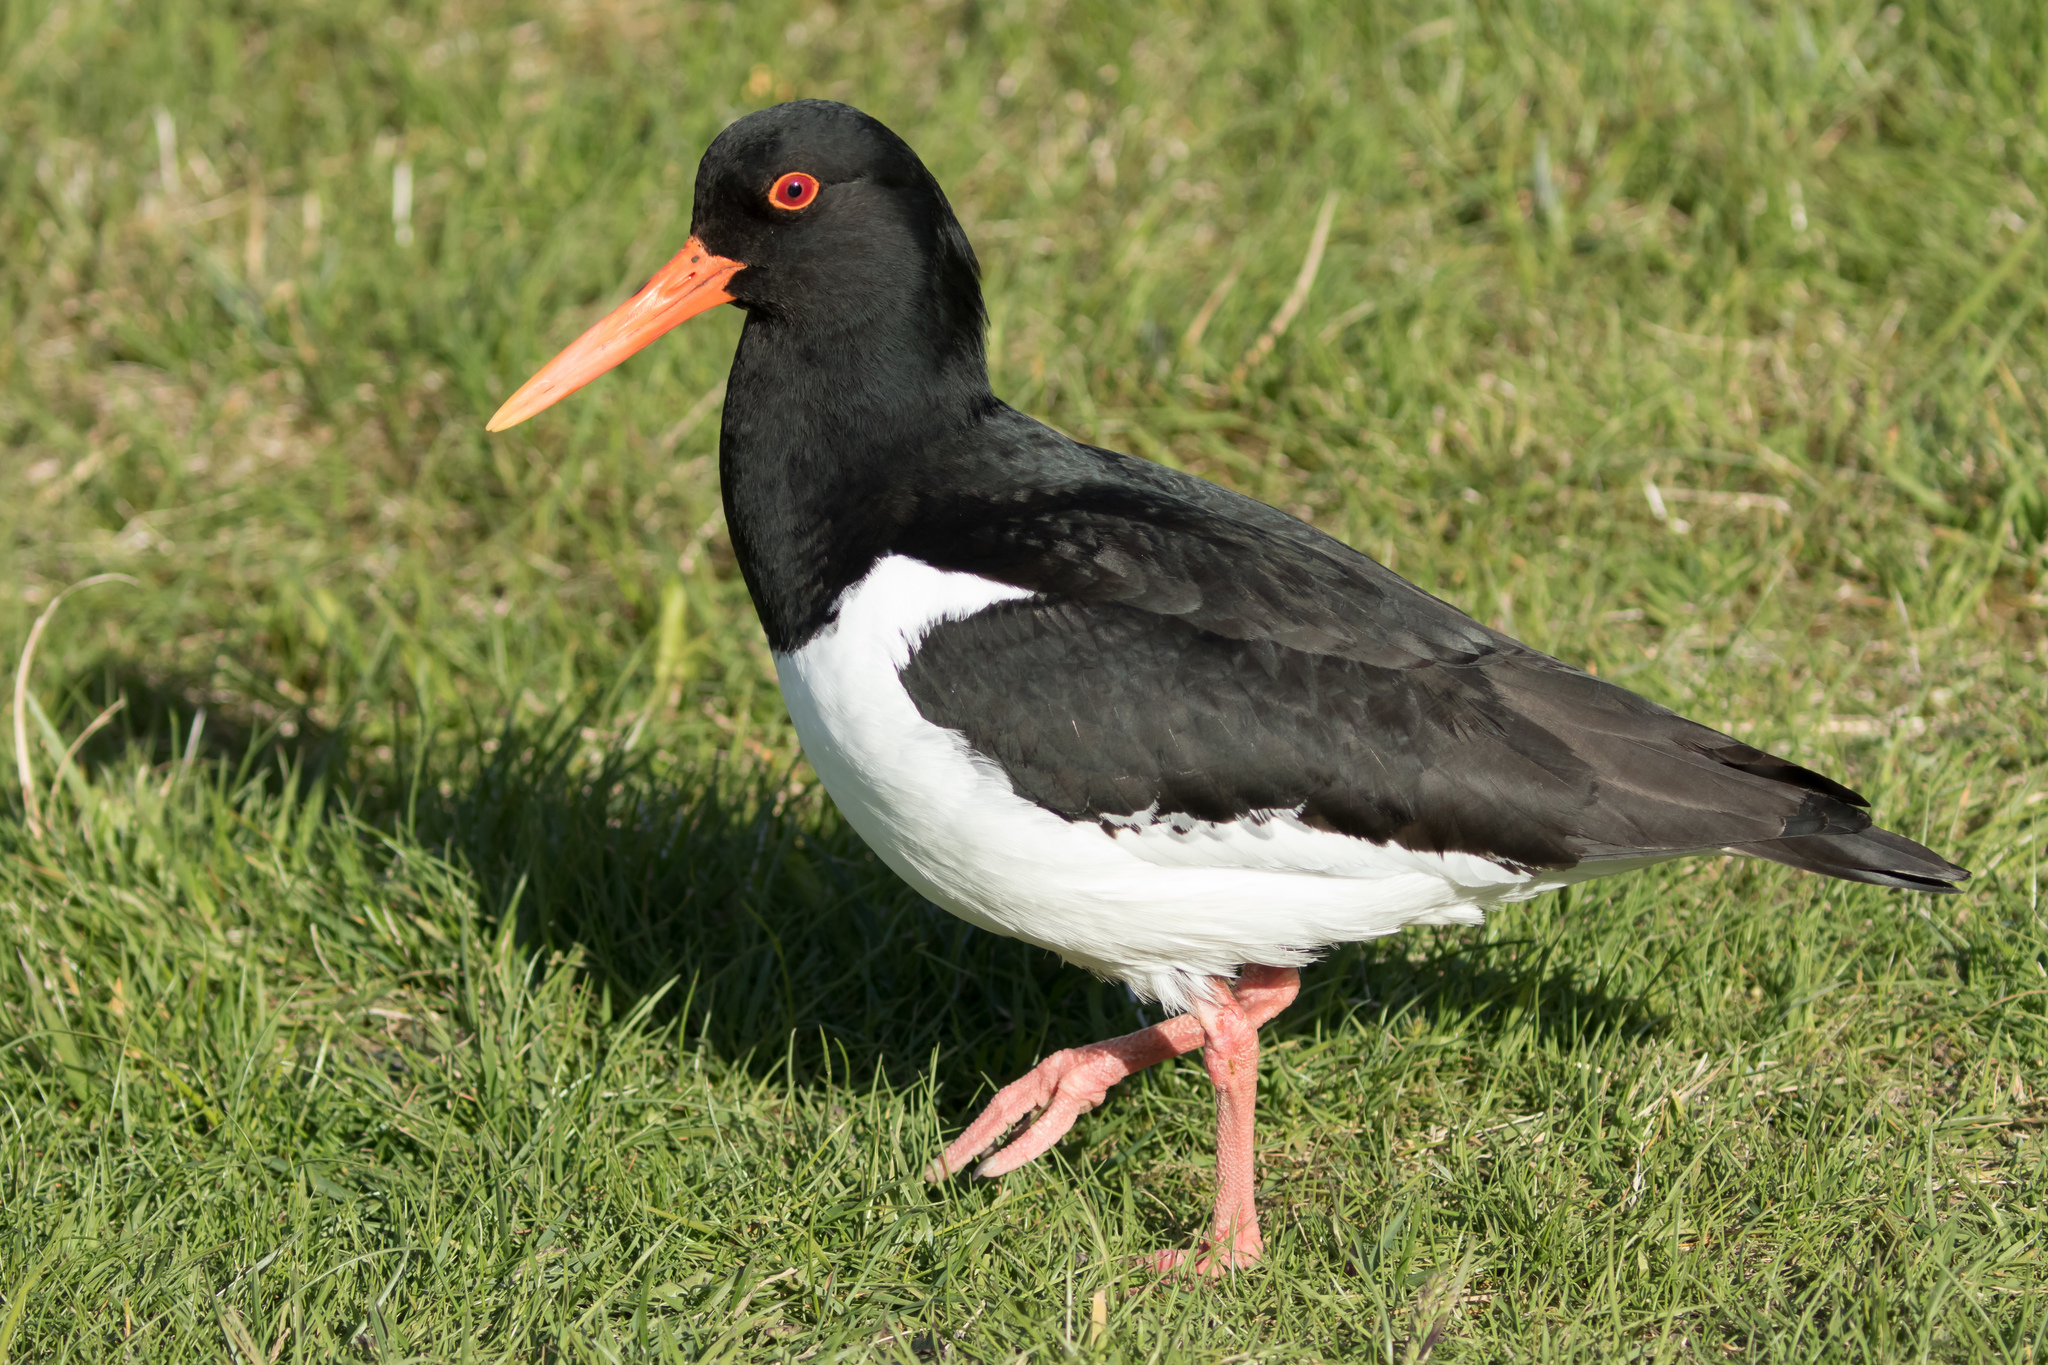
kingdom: Animalia
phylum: Chordata
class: Aves
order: Charadriiformes
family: Haematopodidae
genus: Haematopus
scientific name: Haematopus ostralegus
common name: Eurasian oystercatcher
